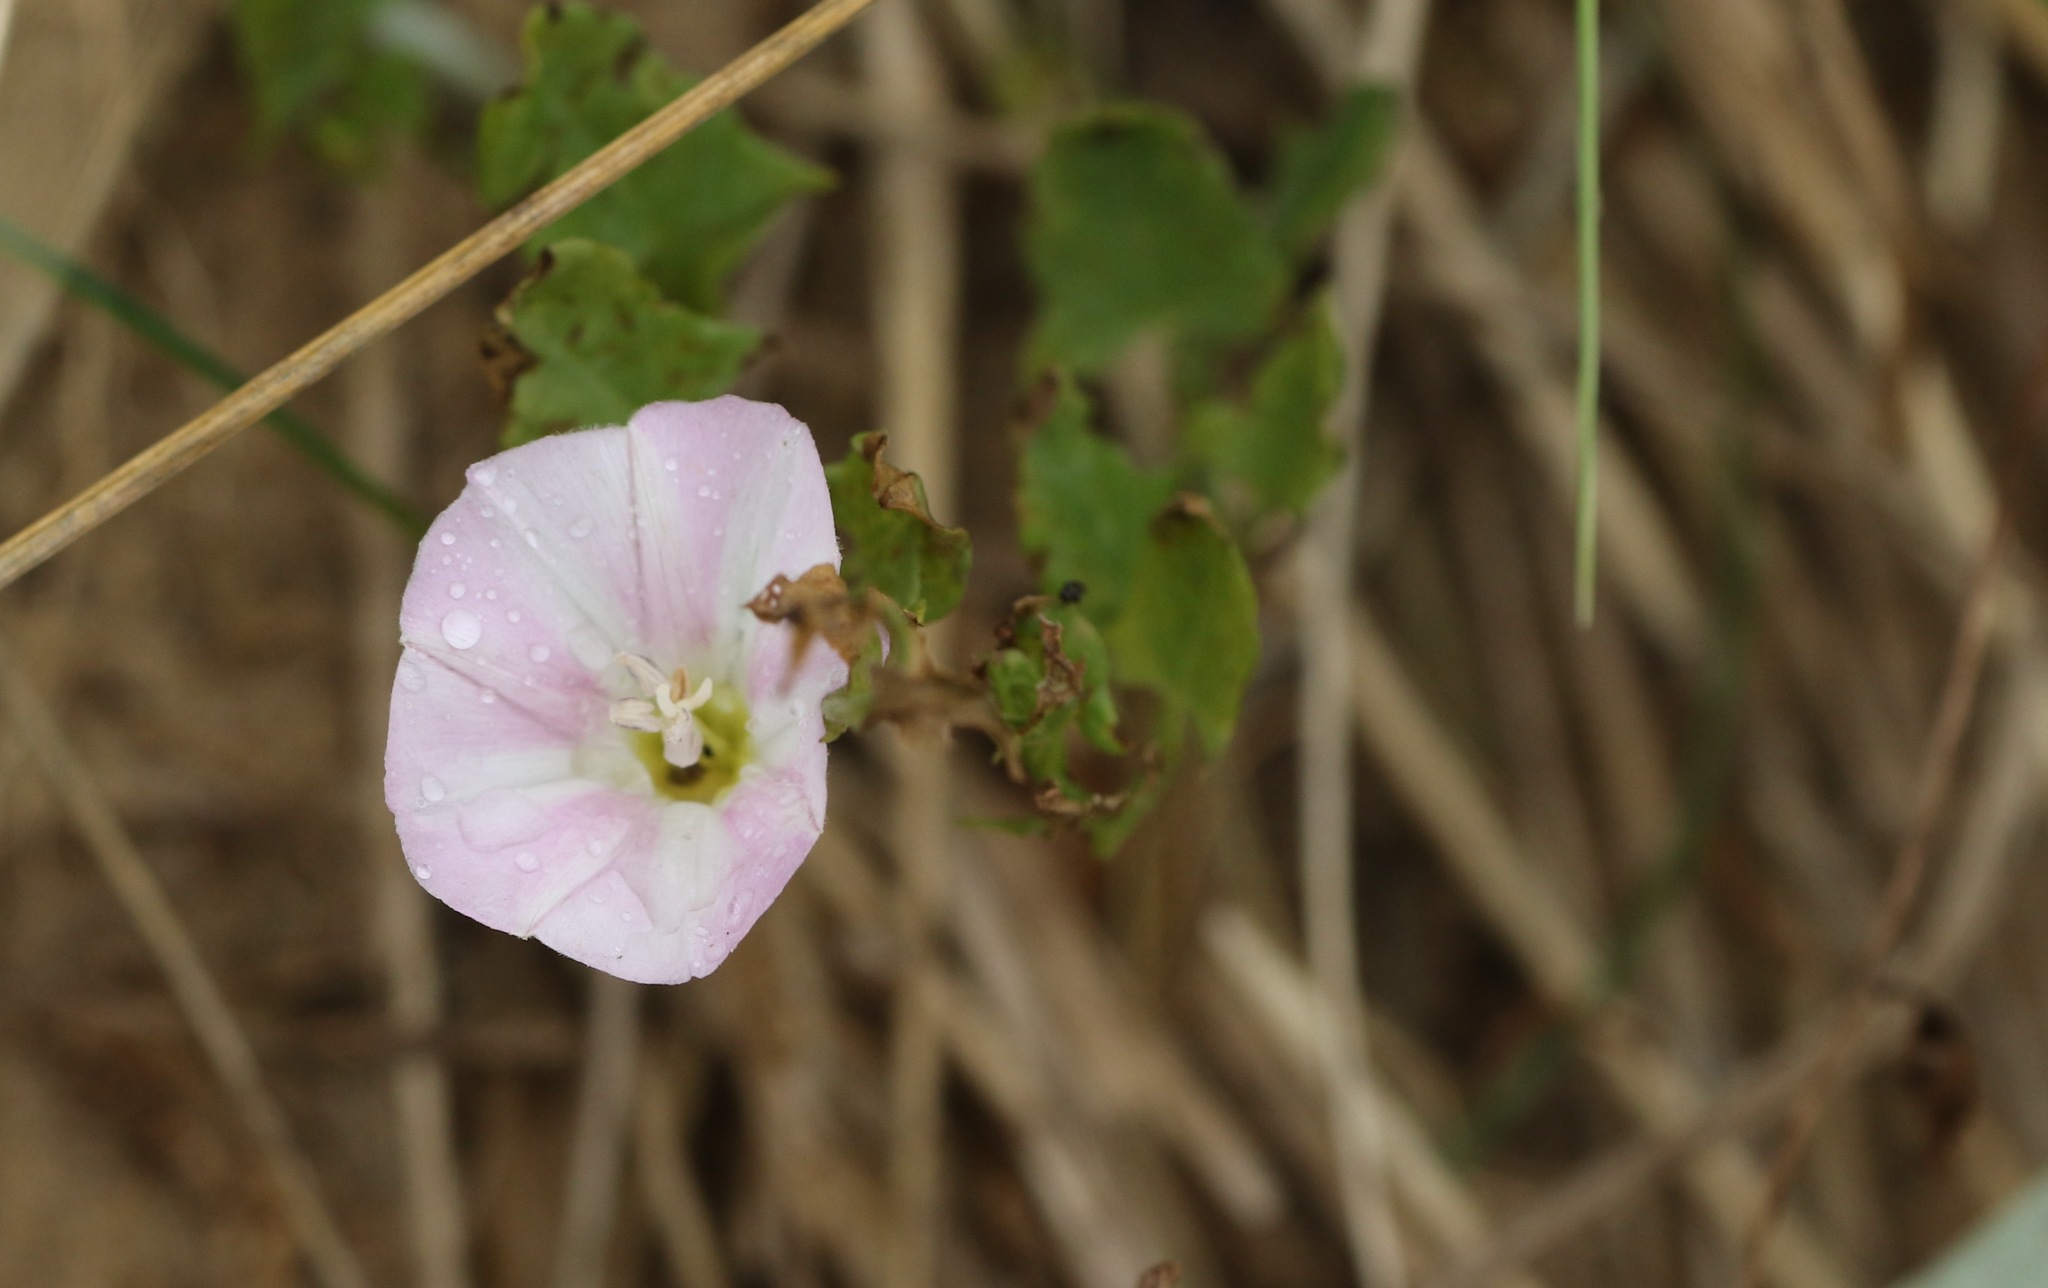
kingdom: Plantae
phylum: Tracheophyta
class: Magnoliopsida
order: Solanales
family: Convolvulaceae
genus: Convolvulus
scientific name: Convolvulus arvensis
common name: Field bindweed
